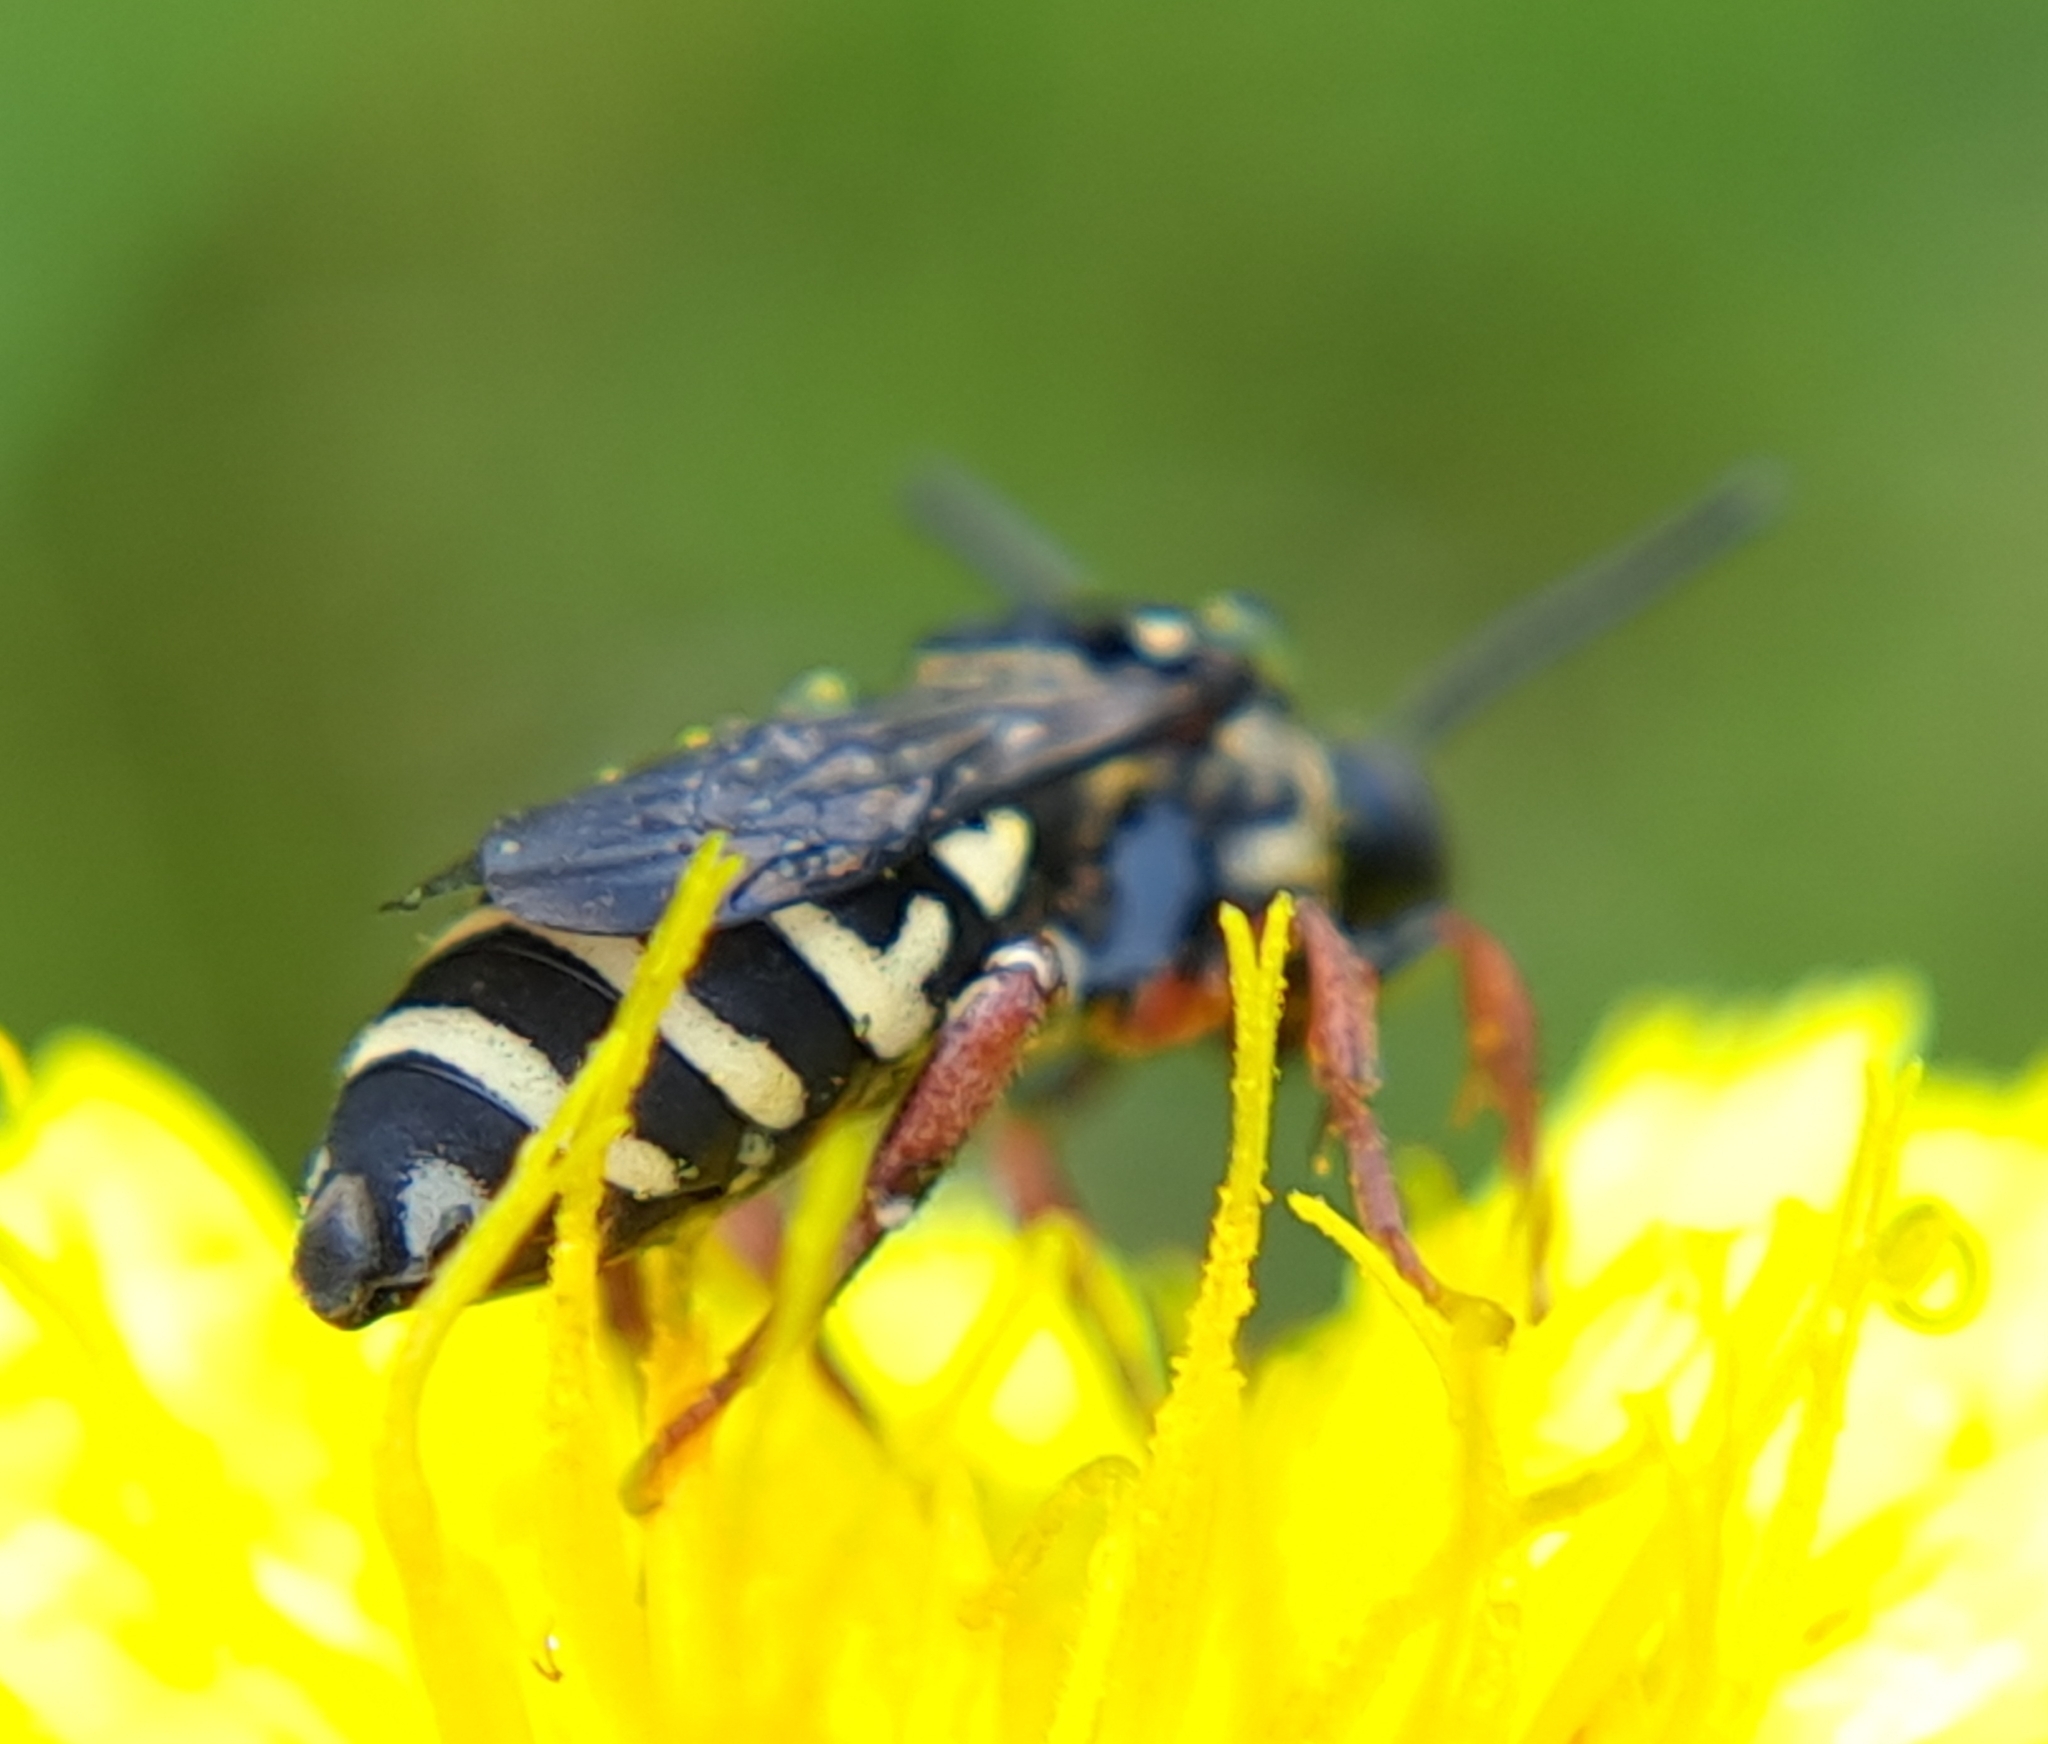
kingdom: Animalia
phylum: Arthropoda
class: Insecta
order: Hymenoptera
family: Apidae
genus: Triepeolus
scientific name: Triepeolus pectoralis
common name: Goldenrod longhorn-cuckoo bee
